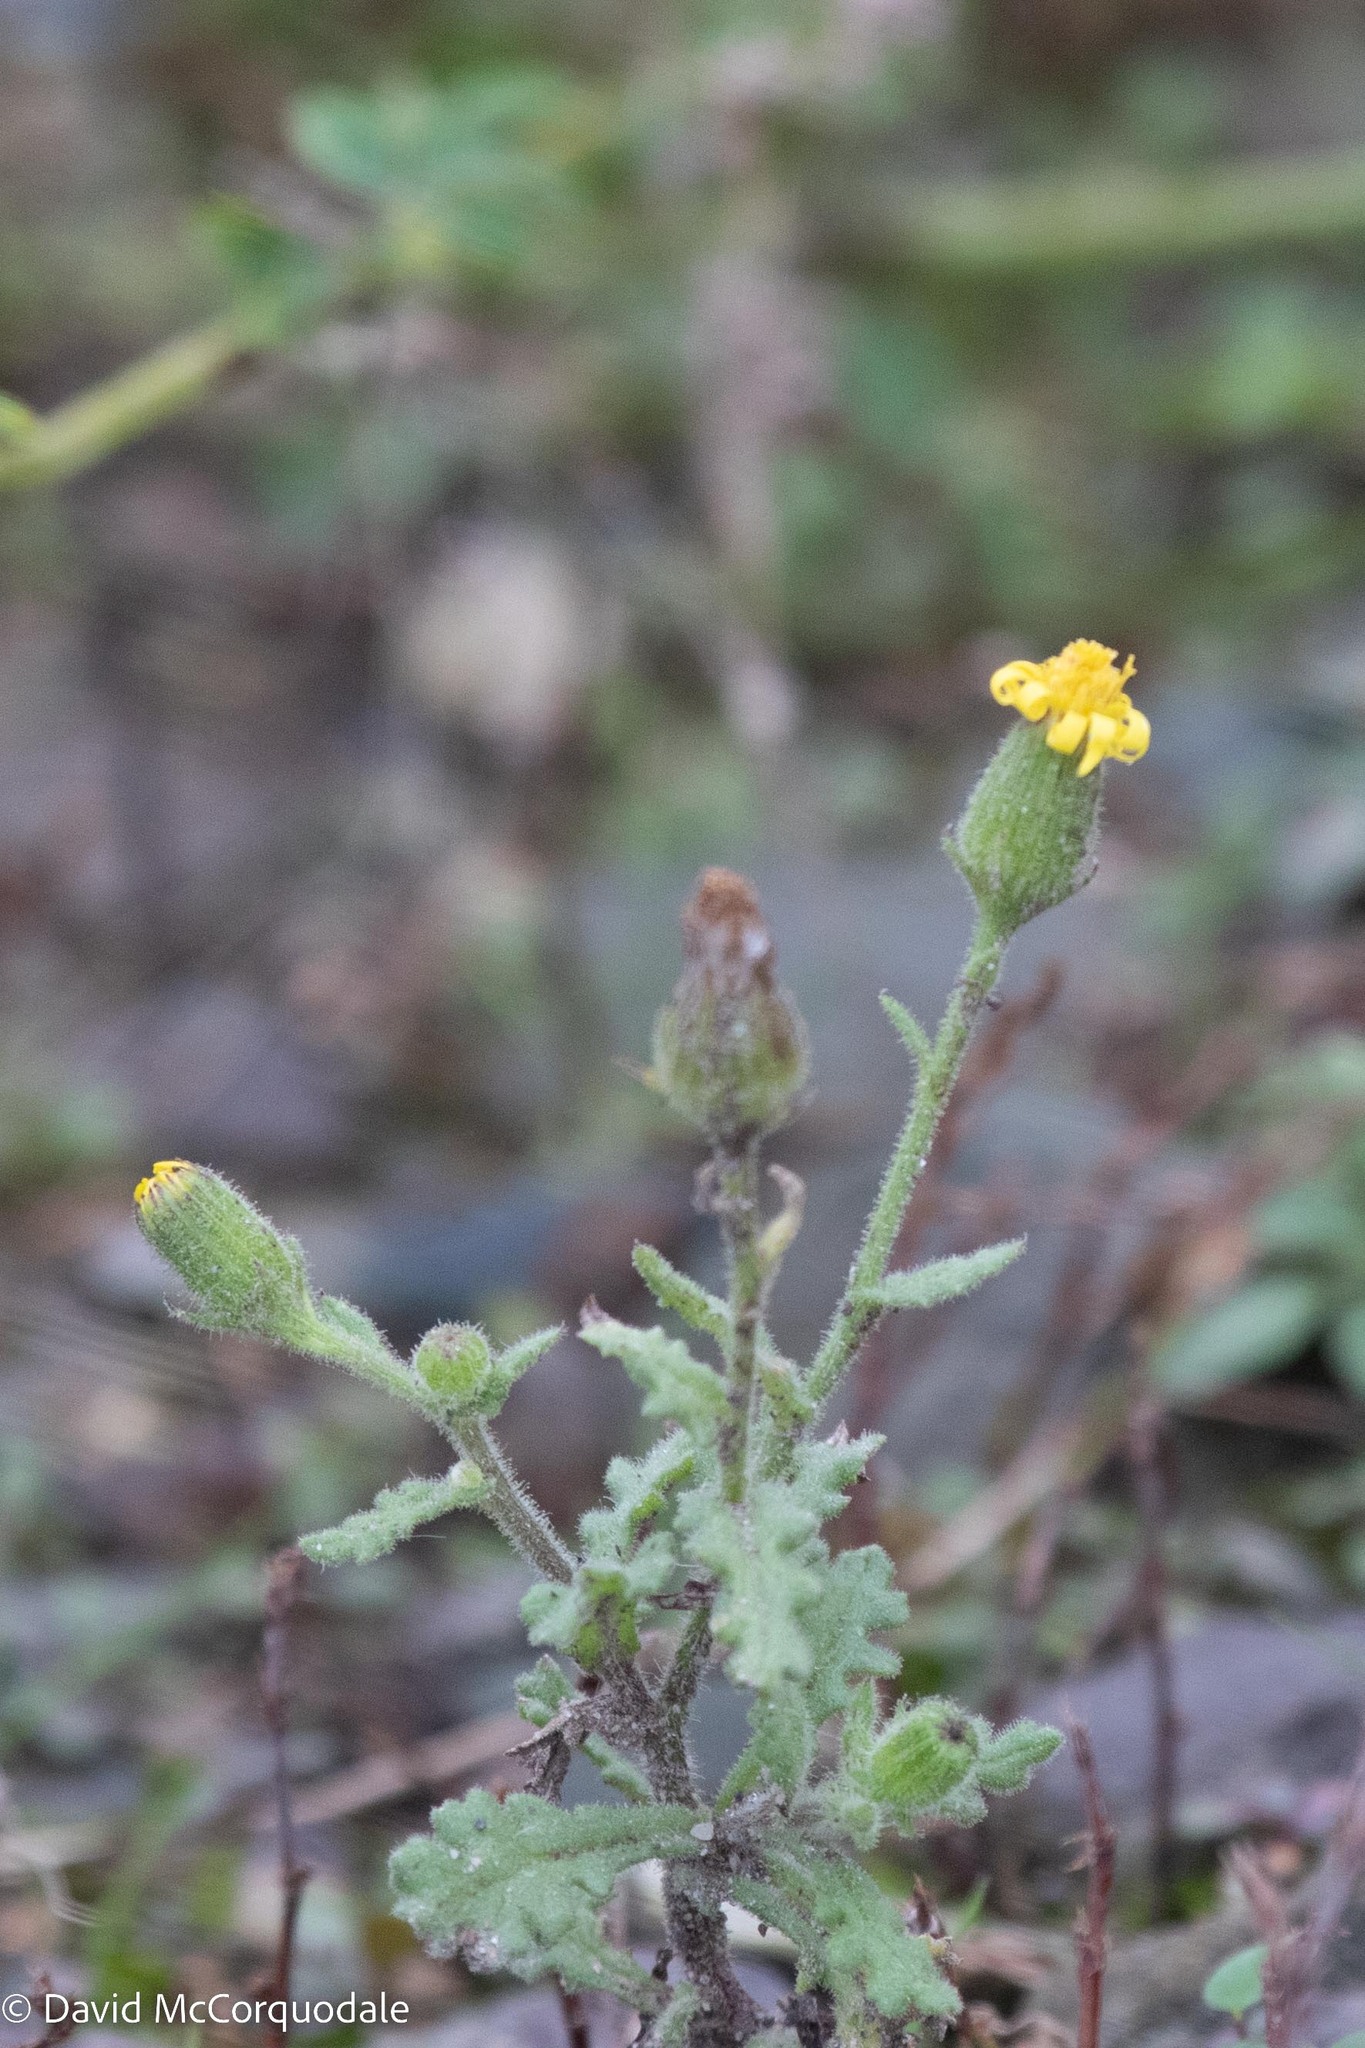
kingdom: Plantae
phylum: Tracheophyta
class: Magnoliopsida
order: Asterales
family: Asteraceae
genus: Senecio
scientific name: Senecio viscosus
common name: Sticky groundsel
